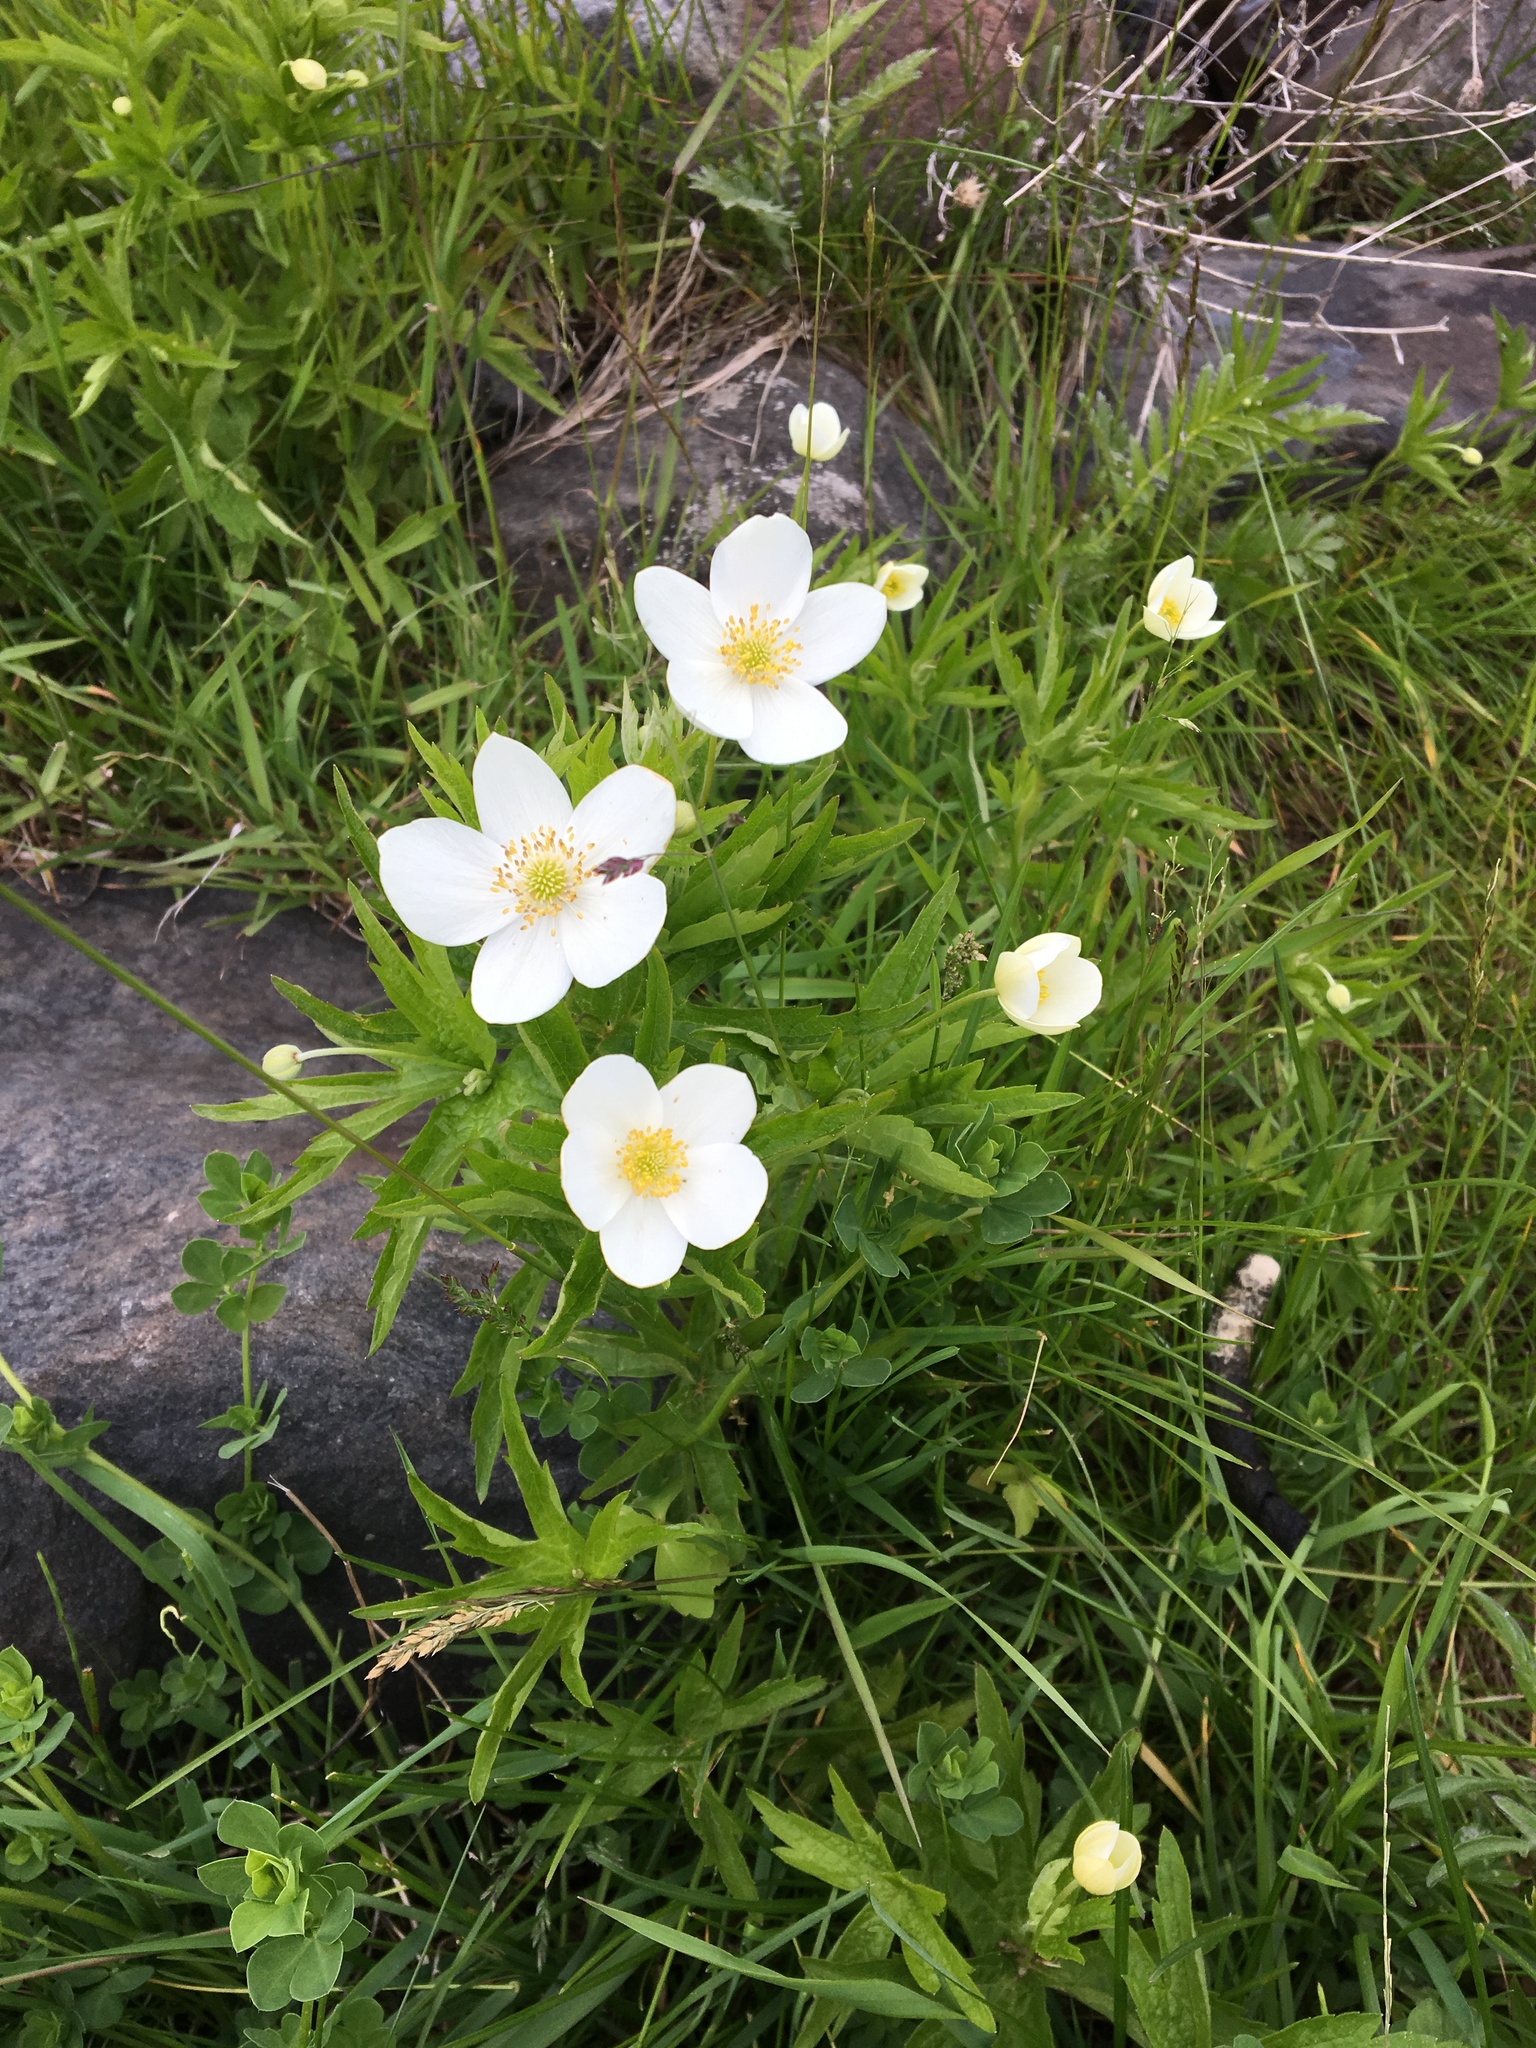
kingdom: Plantae
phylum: Tracheophyta
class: Magnoliopsida
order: Ranunculales
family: Ranunculaceae
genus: Anemonastrum
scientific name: Anemonastrum canadense
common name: Canada anemone
